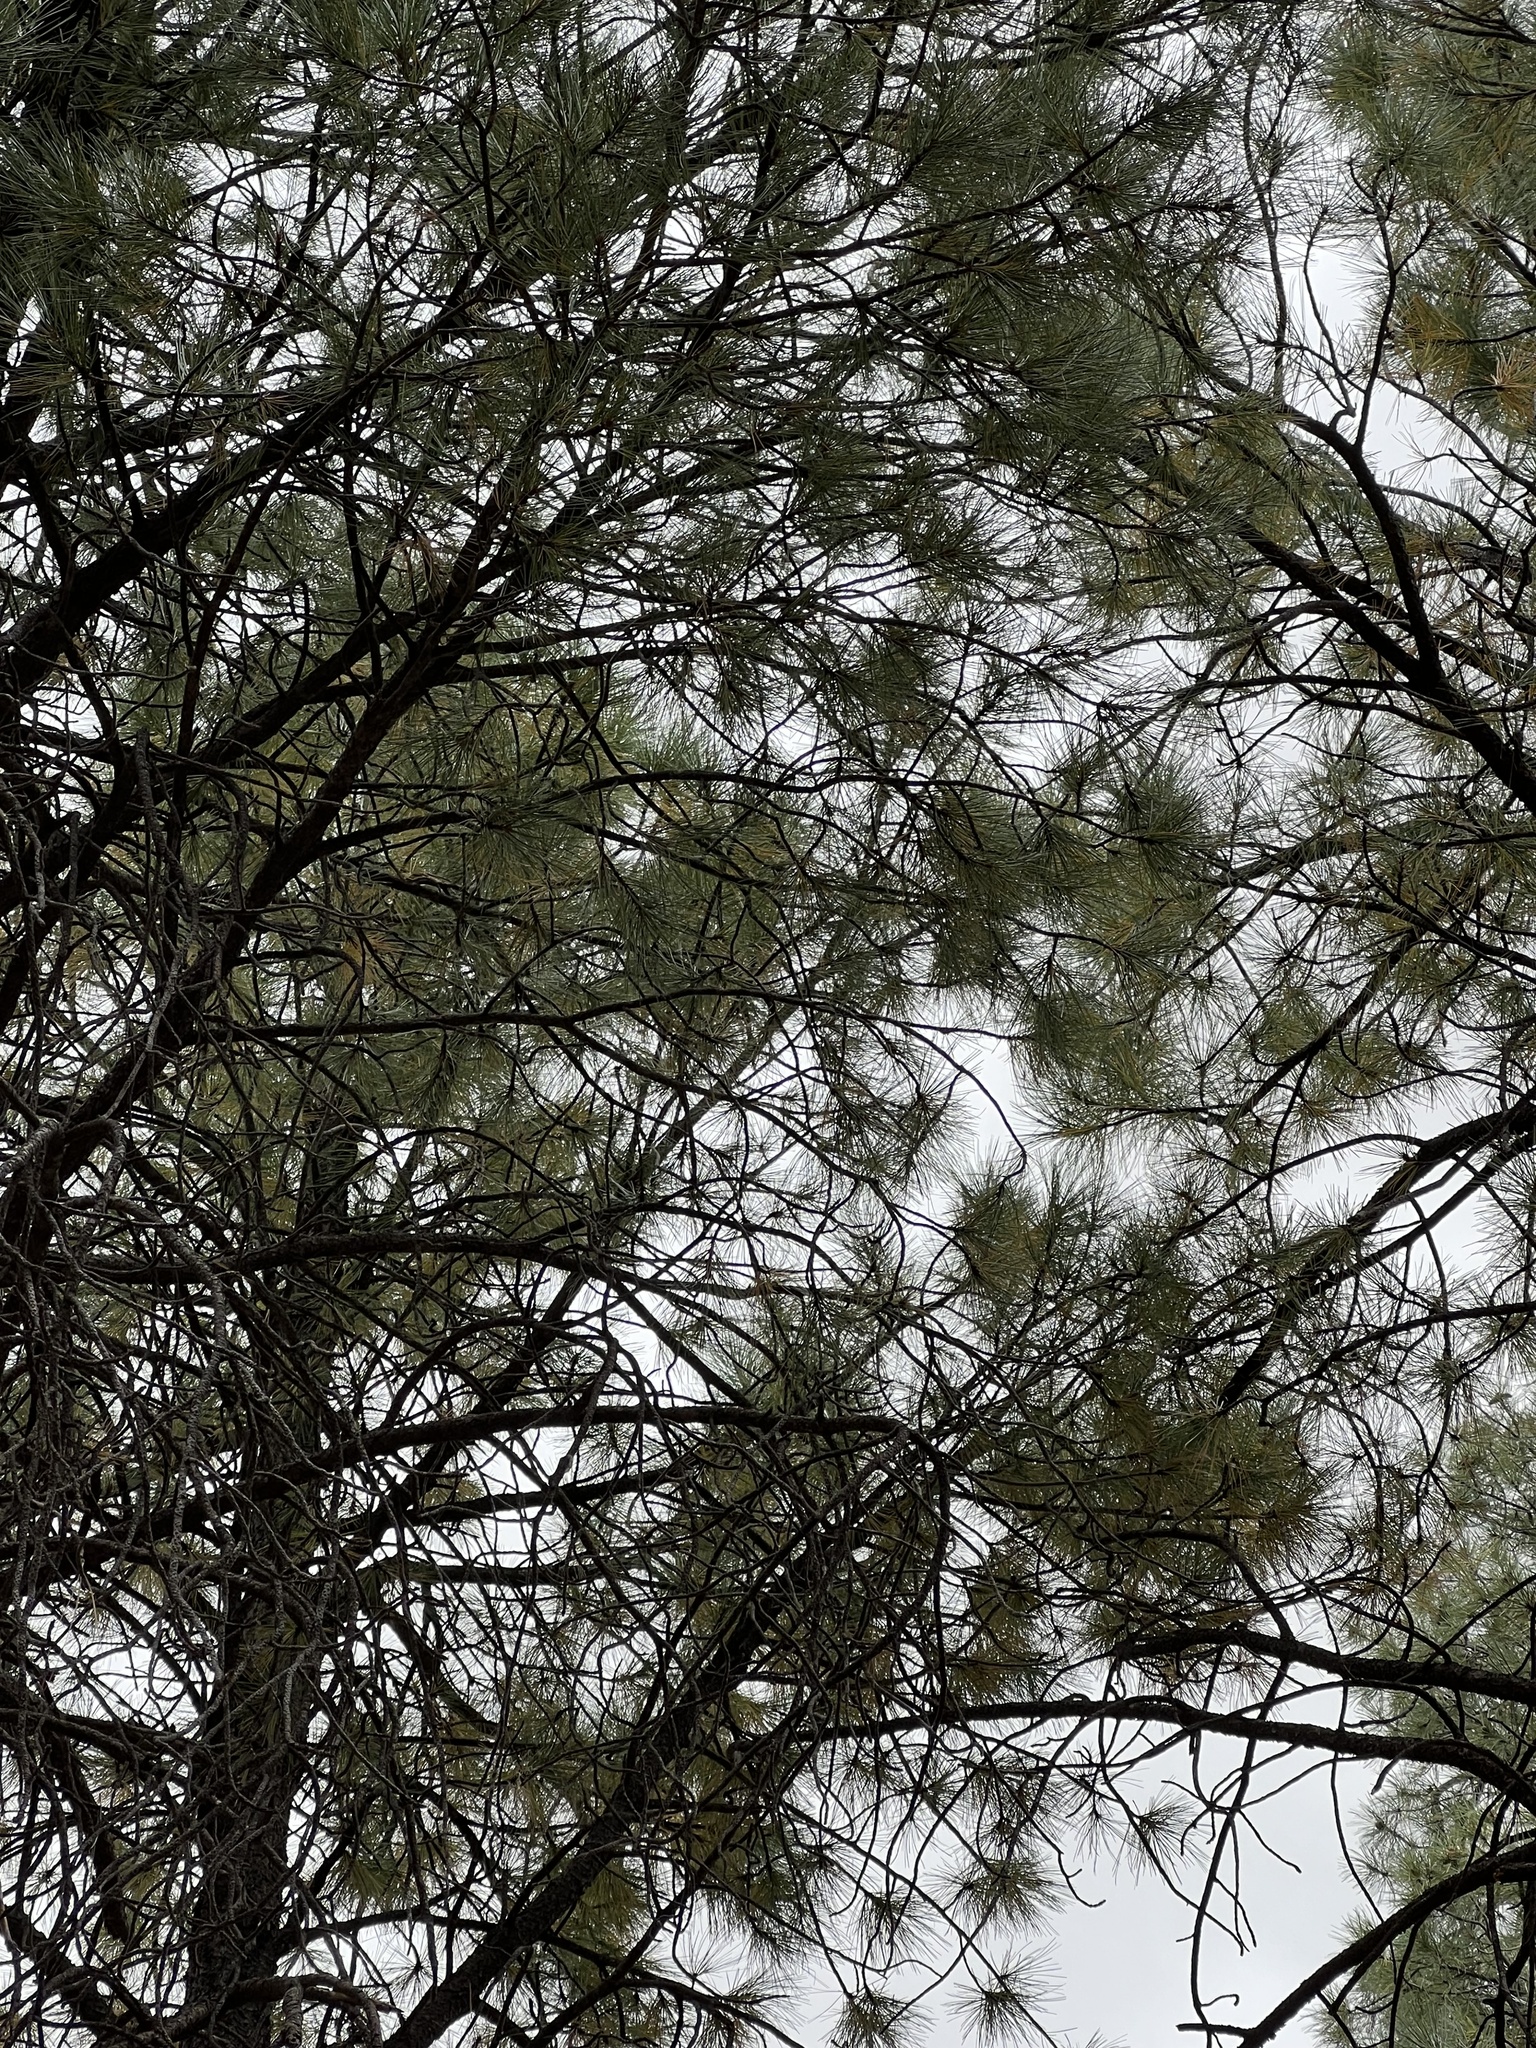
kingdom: Plantae
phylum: Tracheophyta
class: Pinopsida
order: Pinales
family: Pinaceae
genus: Pinus
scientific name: Pinus ponderosa
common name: Western yellow-pine
